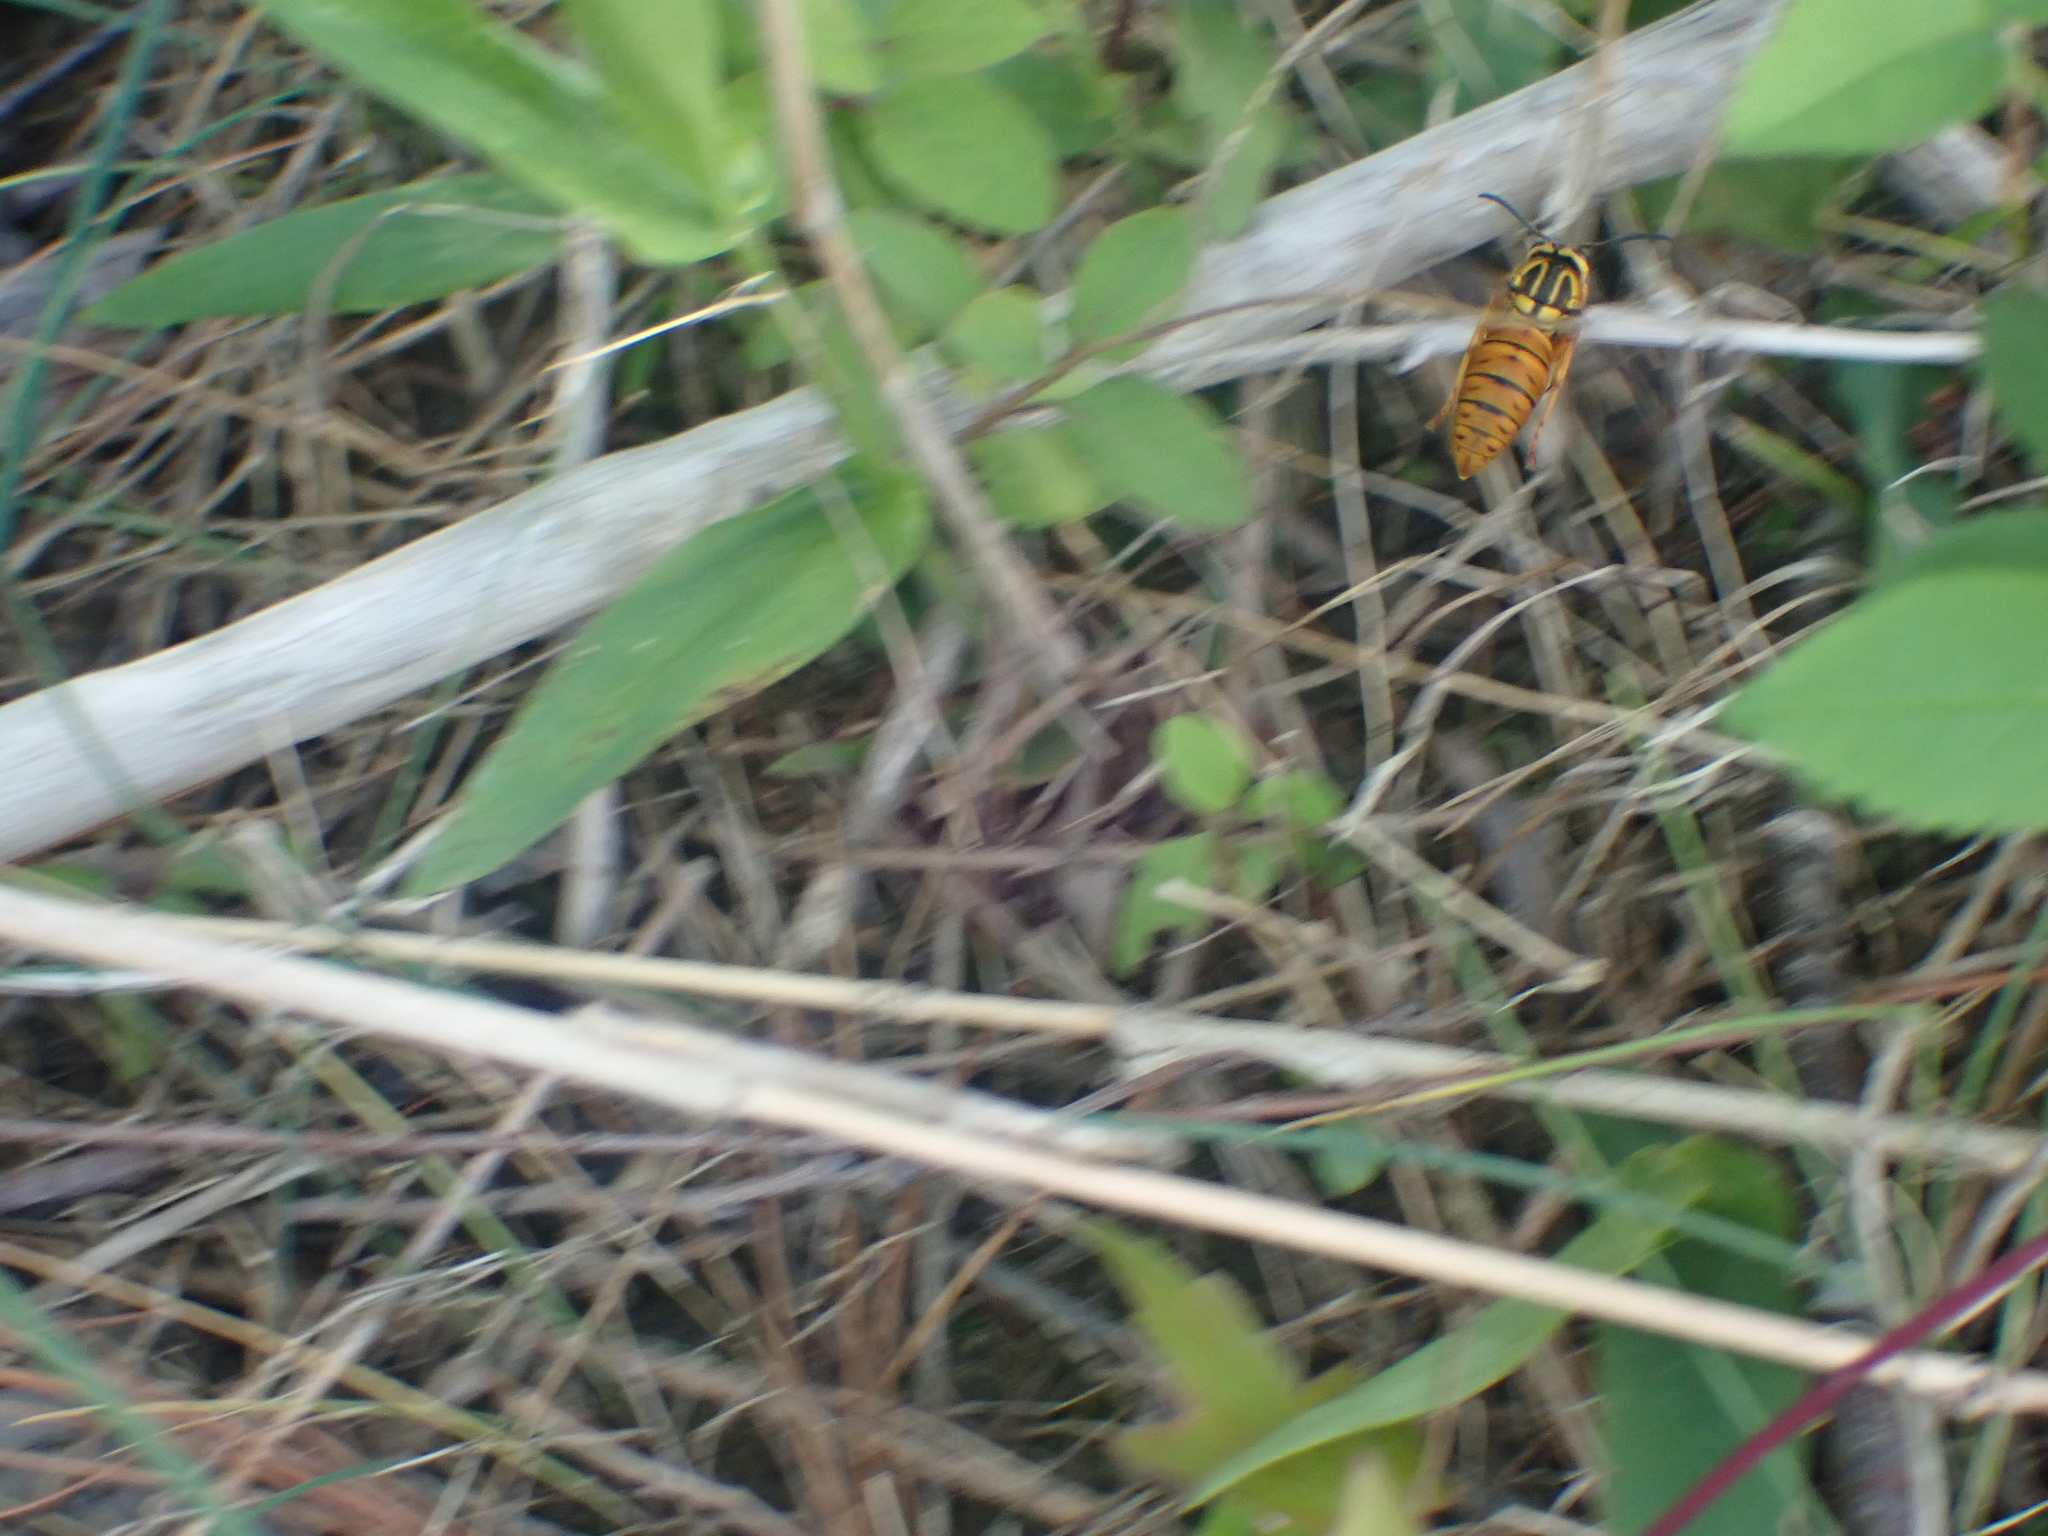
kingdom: Animalia
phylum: Arthropoda
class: Insecta
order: Hymenoptera
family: Vespidae
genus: Vespula
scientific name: Vespula squamosa
